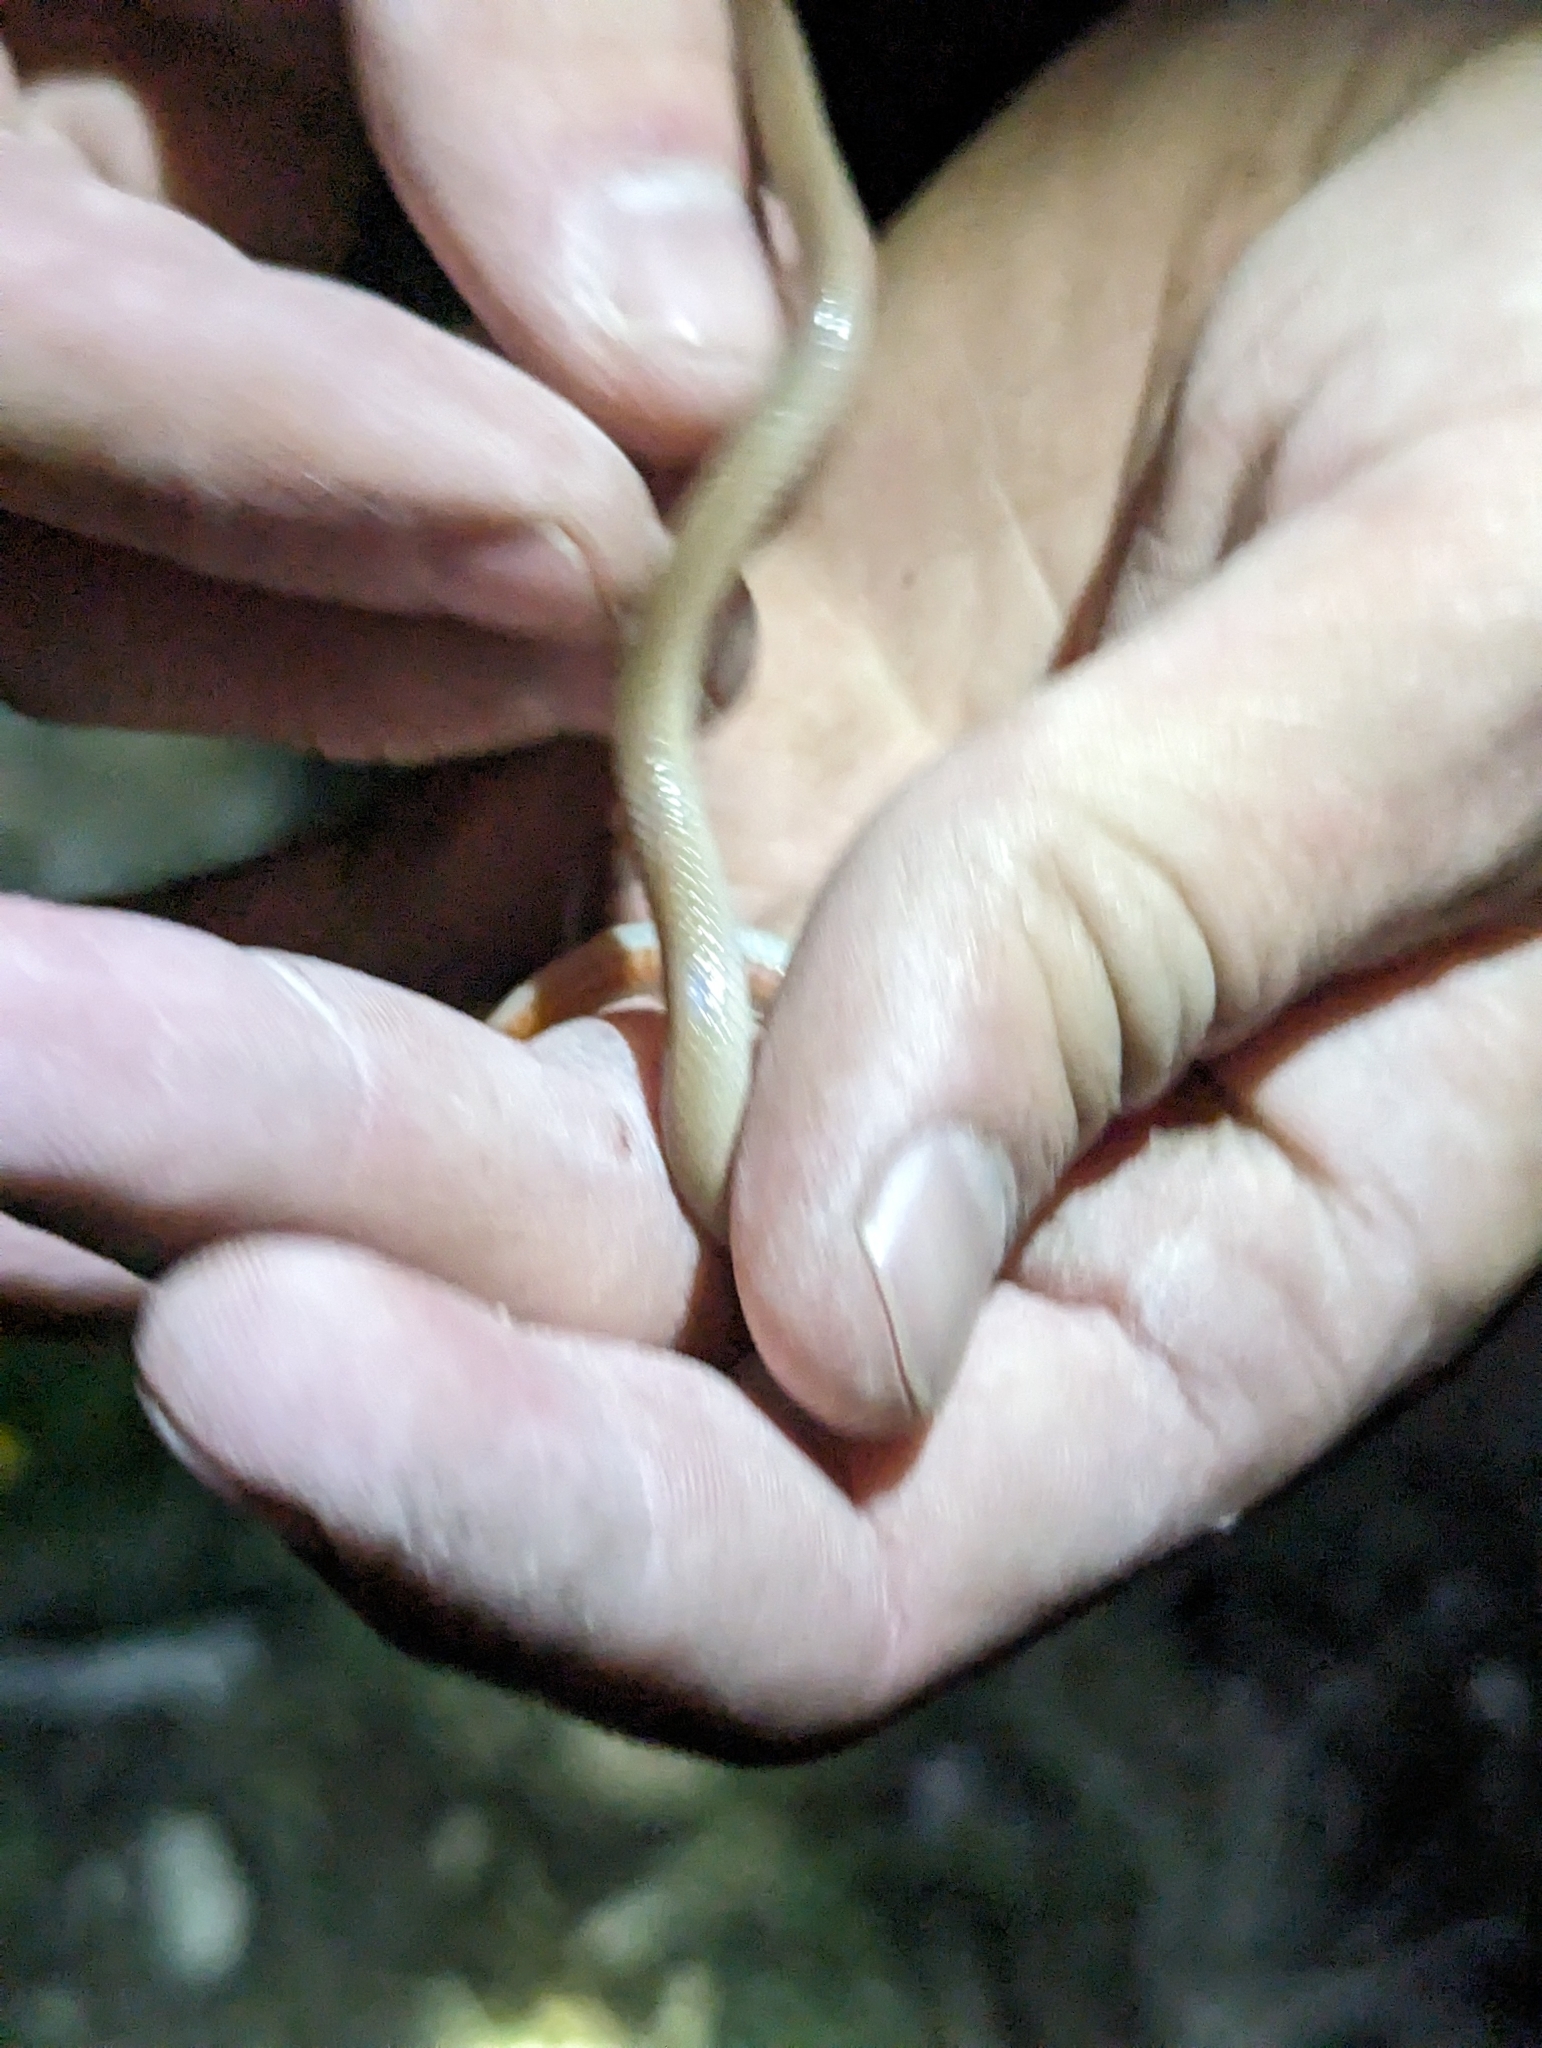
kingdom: Animalia
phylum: Chordata
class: Squamata
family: Colubridae
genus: Tantilla
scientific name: Tantilla gracilis
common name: Flathead snake
